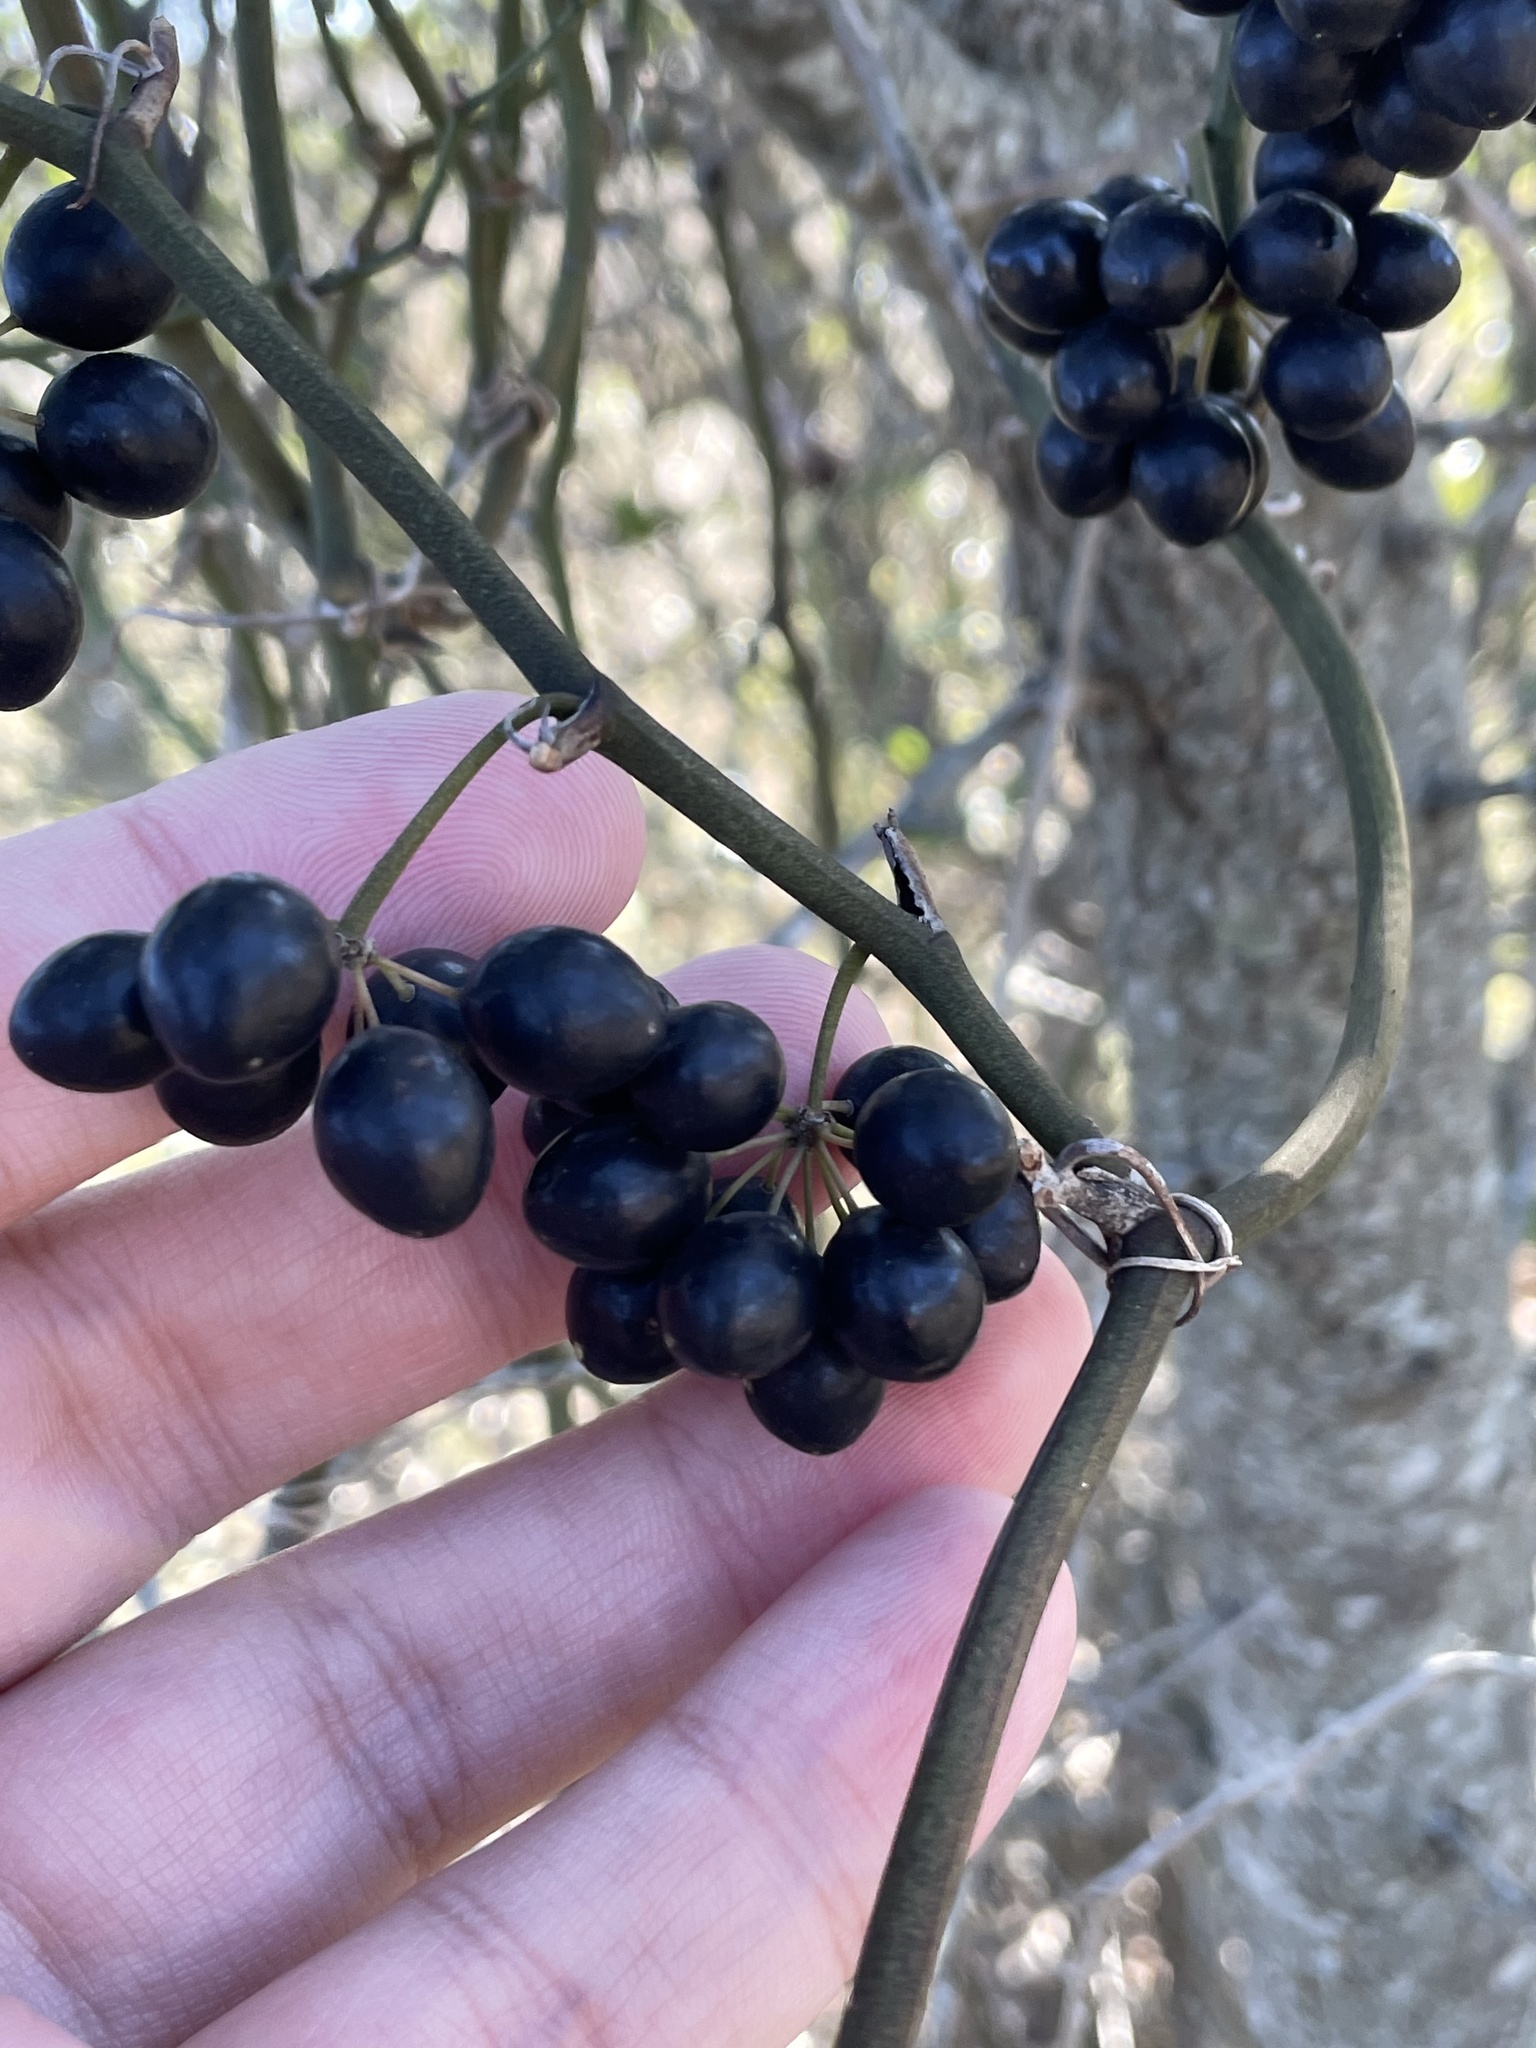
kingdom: Plantae
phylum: Tracheophyta
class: Liliopsida
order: Liliales
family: Smilacaceae
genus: Smilax
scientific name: Smilax bona-nox
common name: Catbrier
